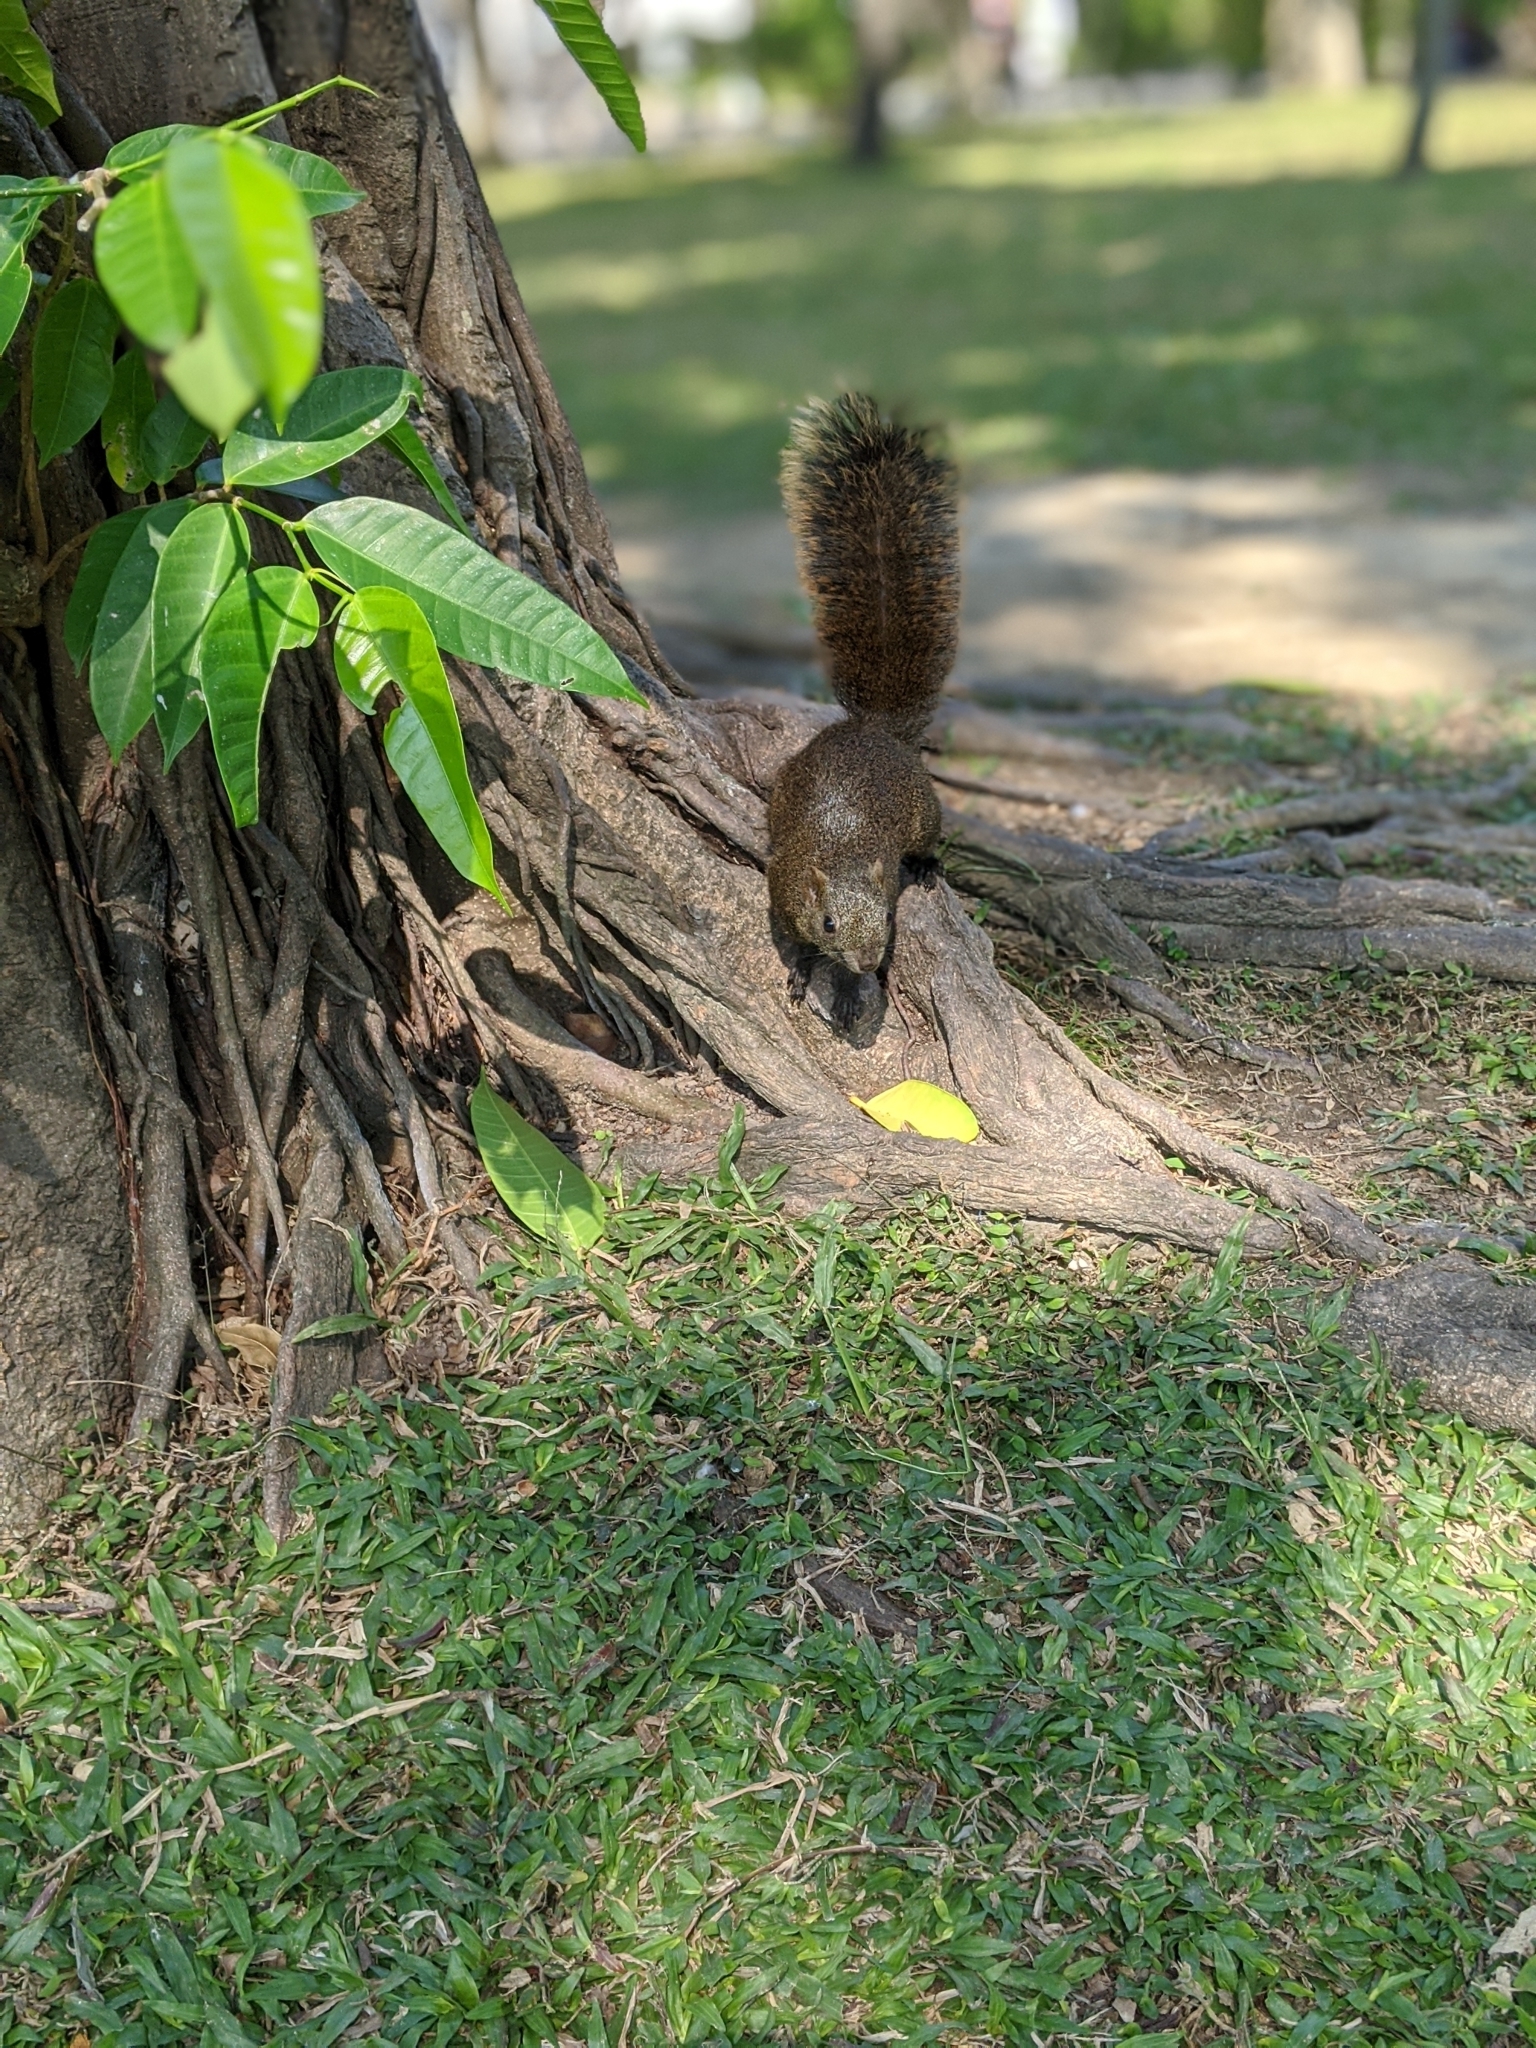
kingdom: Animalia
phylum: Chordata
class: Mammalia
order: Rodentia
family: Sciuridae
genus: Callosciurus
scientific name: Callosciurus erythraeus
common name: Pallas's squirrel
